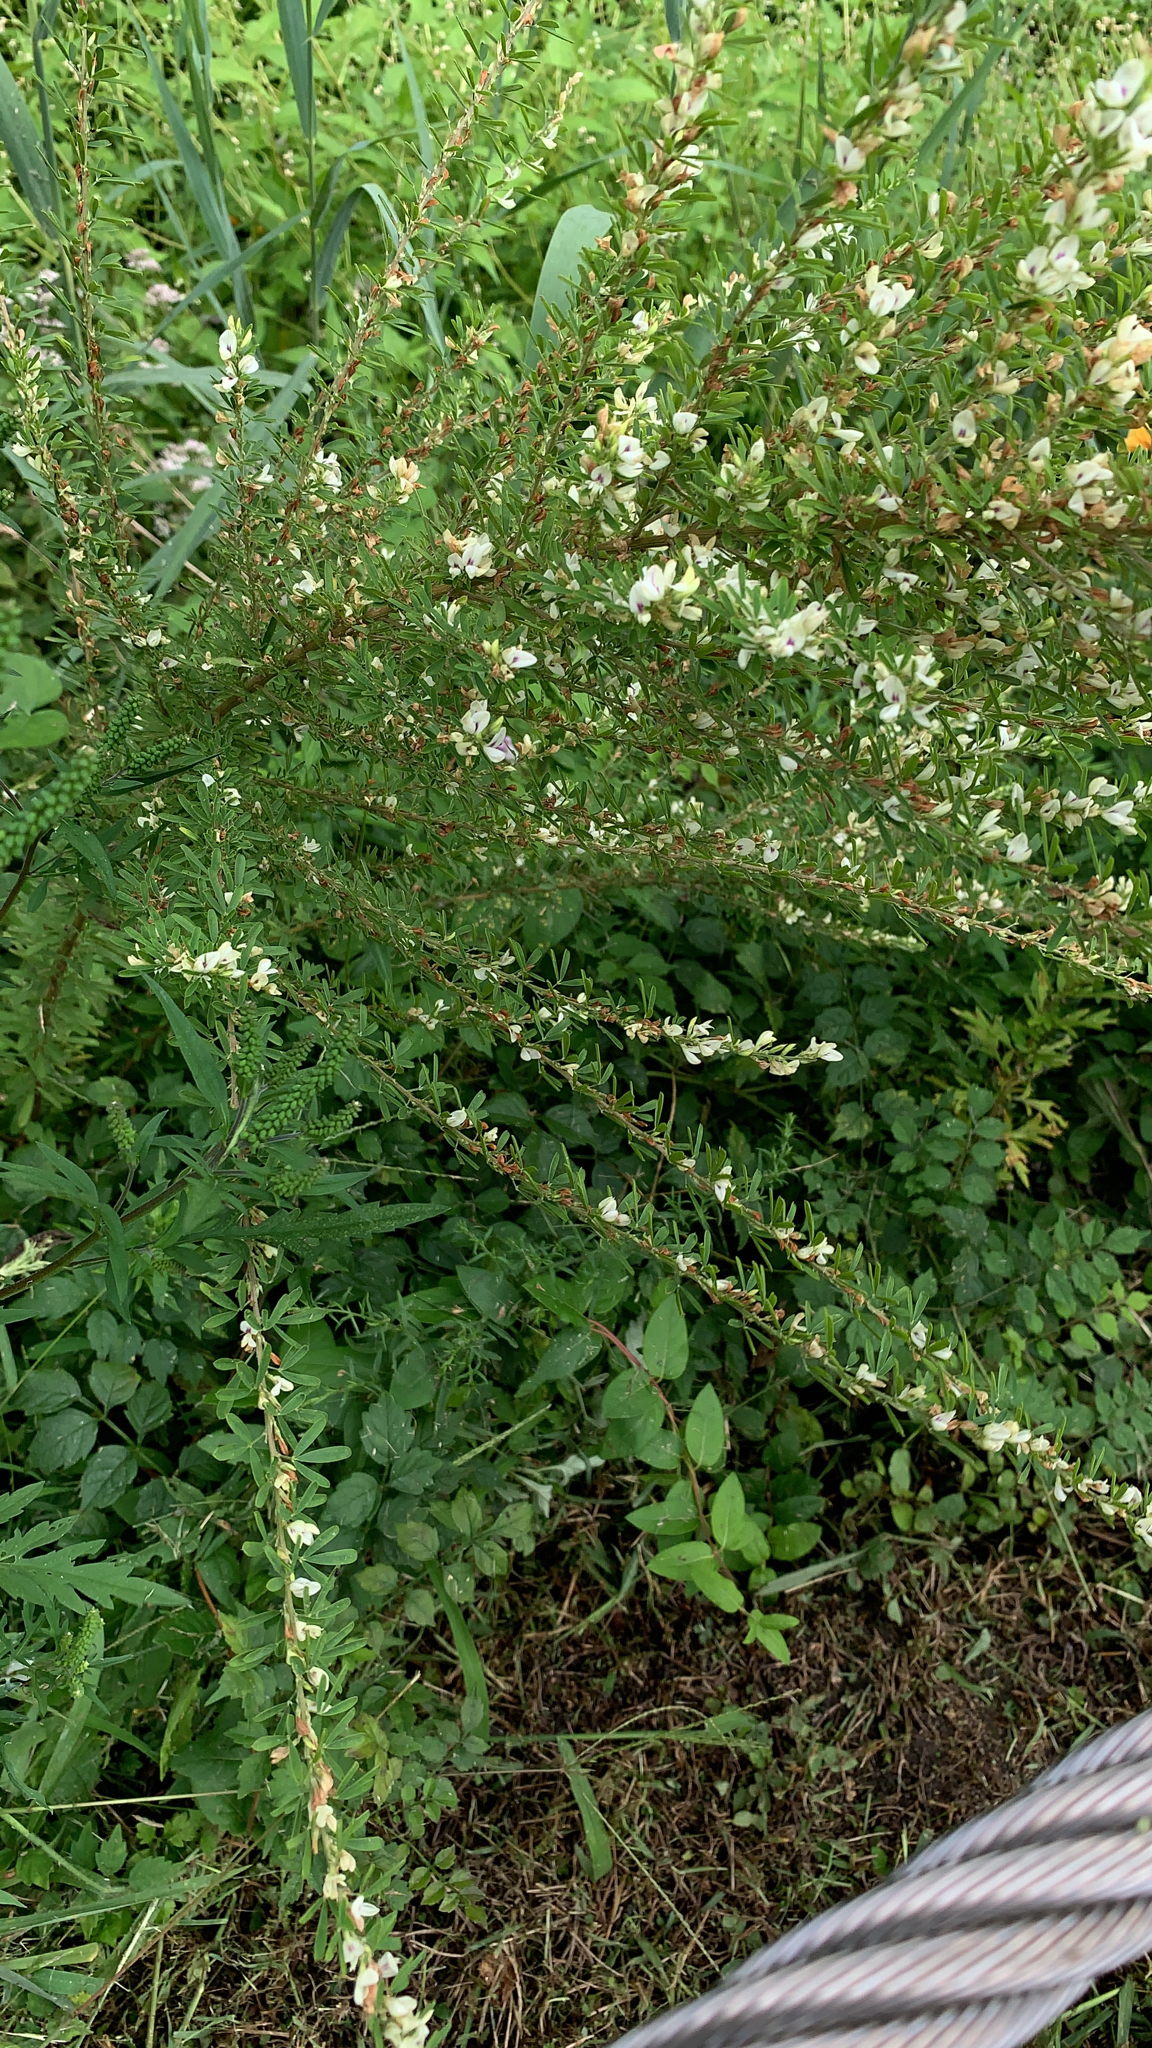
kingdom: Plantae
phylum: Tracheophyta
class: Magnoliopsida
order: Fabales
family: Fabaceae
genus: Lespedeza
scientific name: Lespedeza cuneata
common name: Chinese bush-clover
